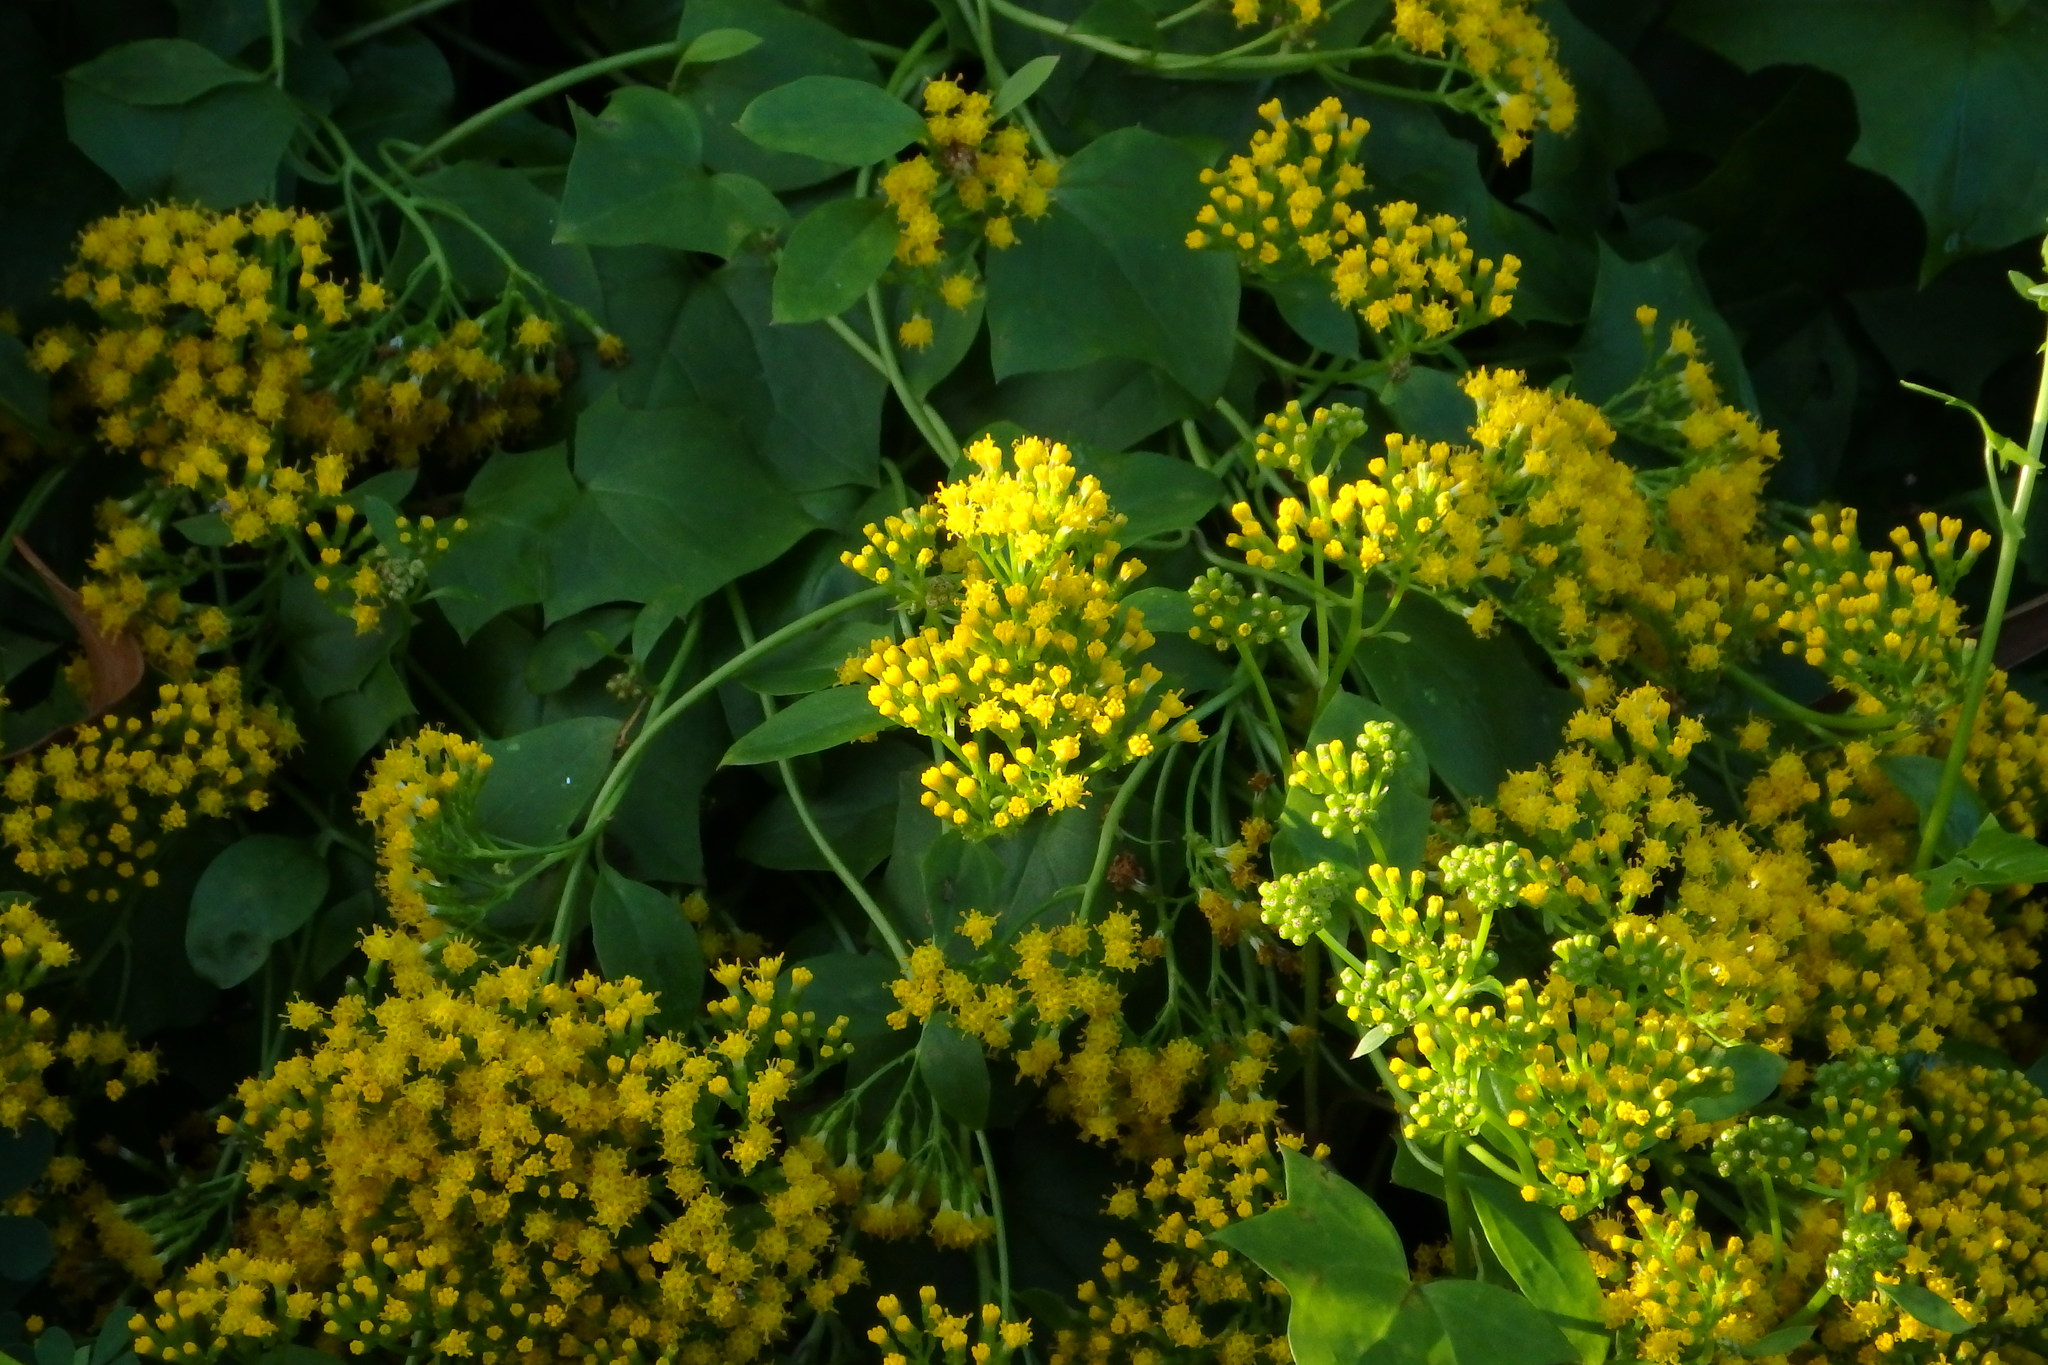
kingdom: Plantae
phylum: Tracheophyta
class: Magnoliopsida
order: Asterales
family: Asteraceae
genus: Delairea
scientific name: Delairea odorata
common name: Cape-ivy
